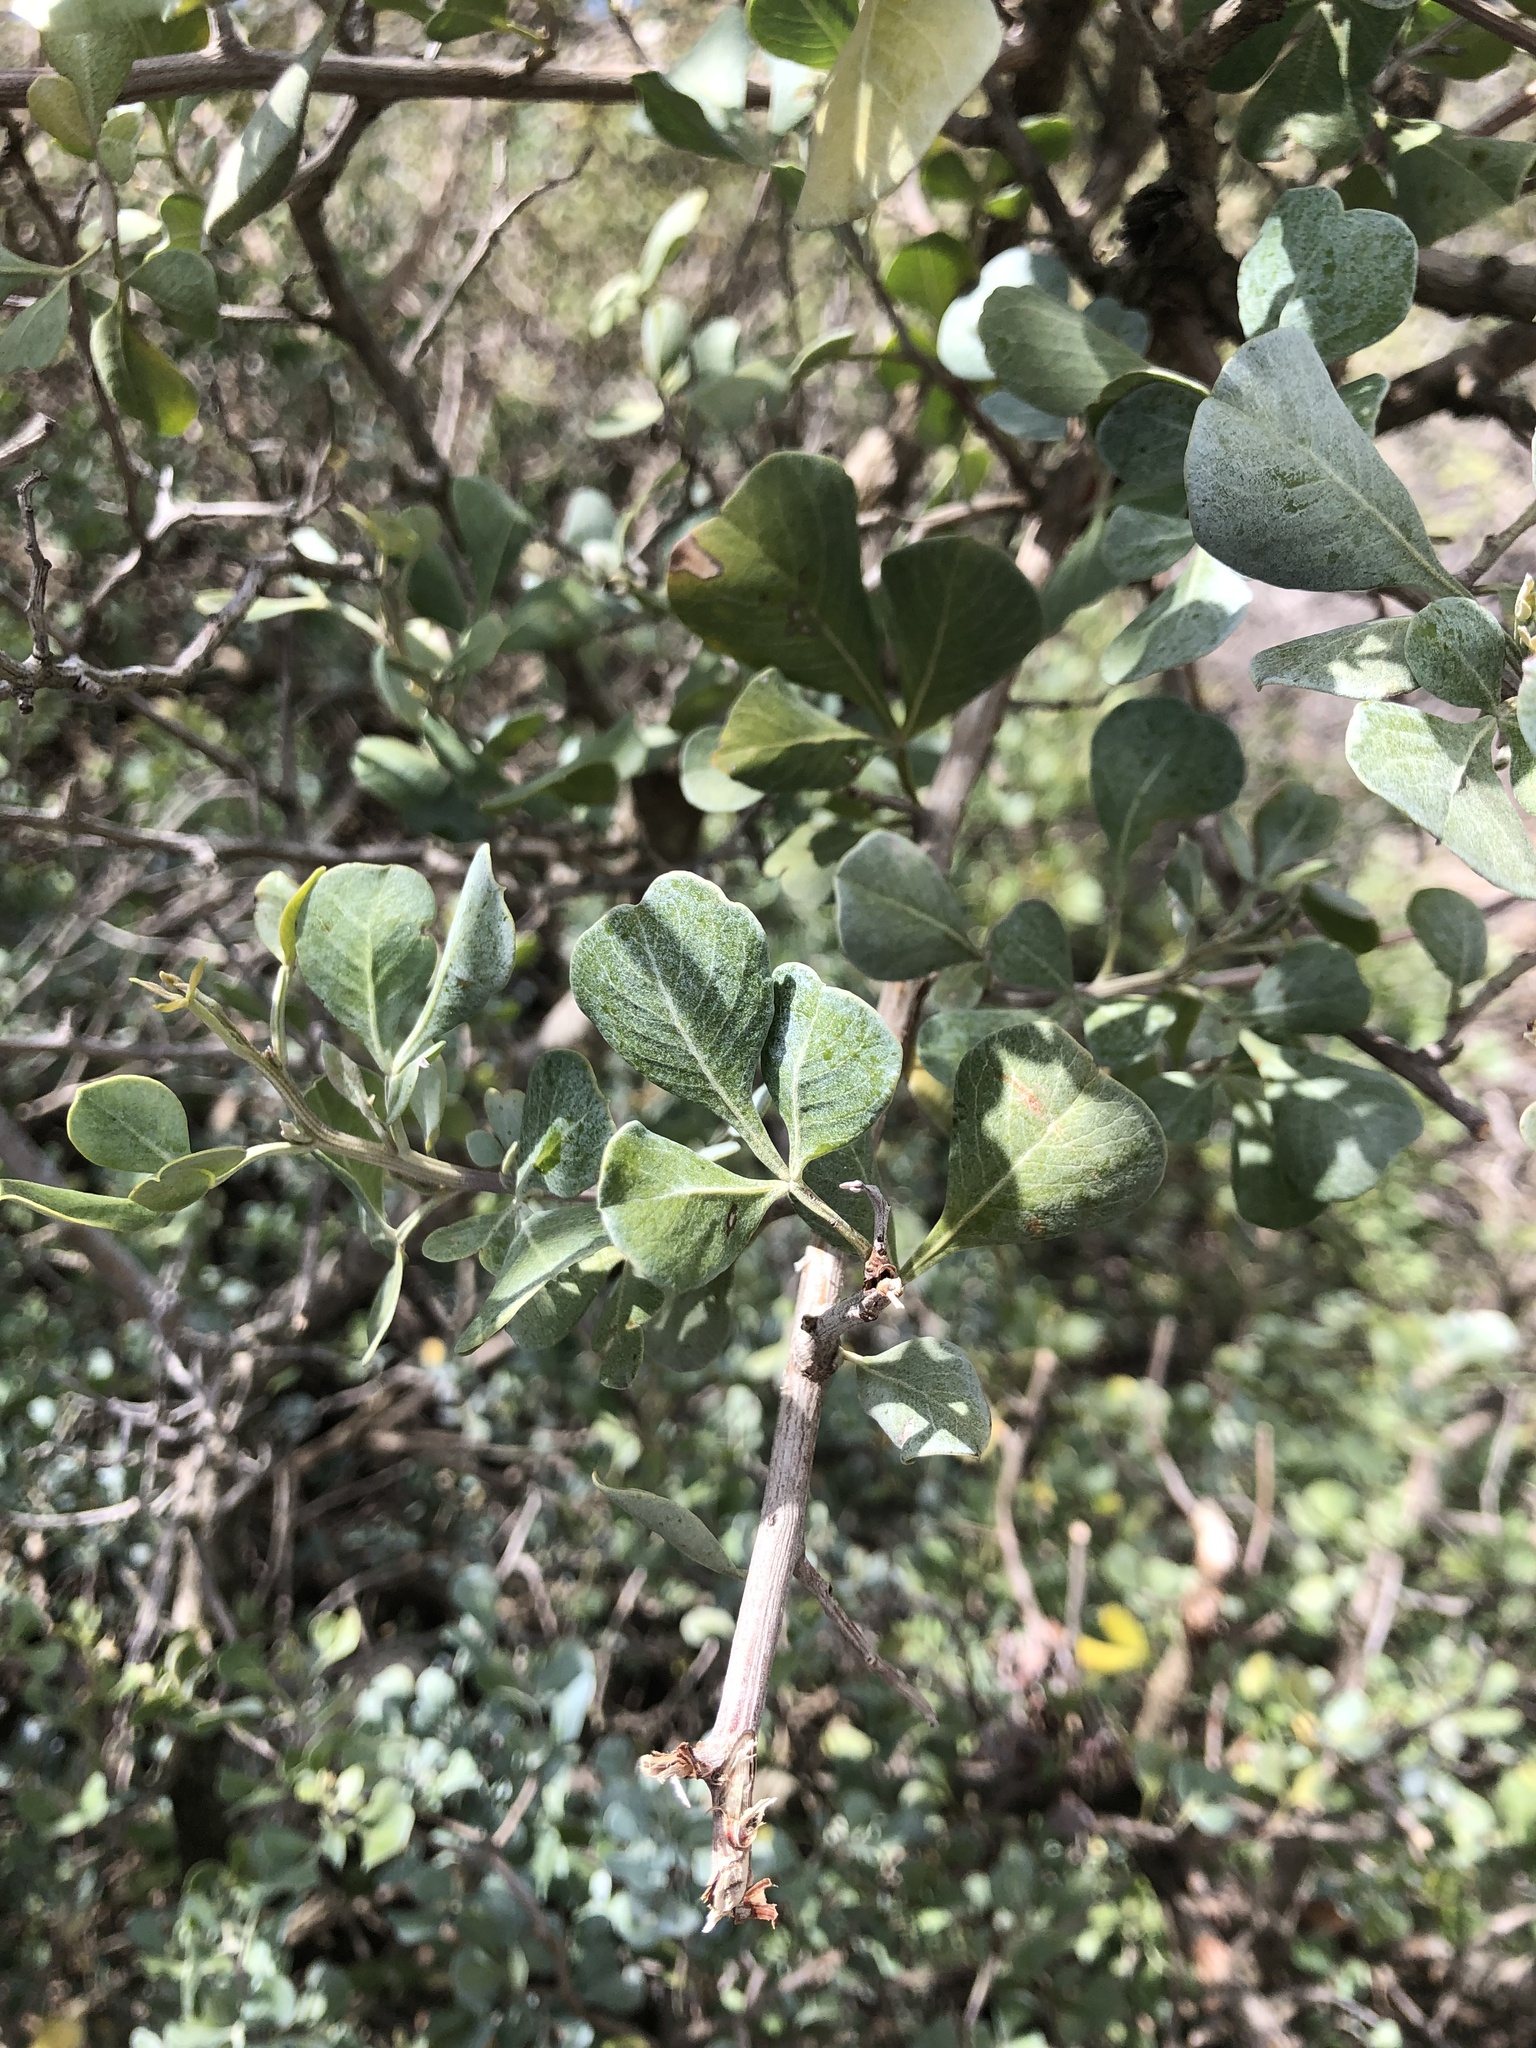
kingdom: Plantae
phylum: Tracheophyta
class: Magnoliopsida
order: Sapindales
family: Anacardiaceae
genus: Searsia
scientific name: Searsia glauca
